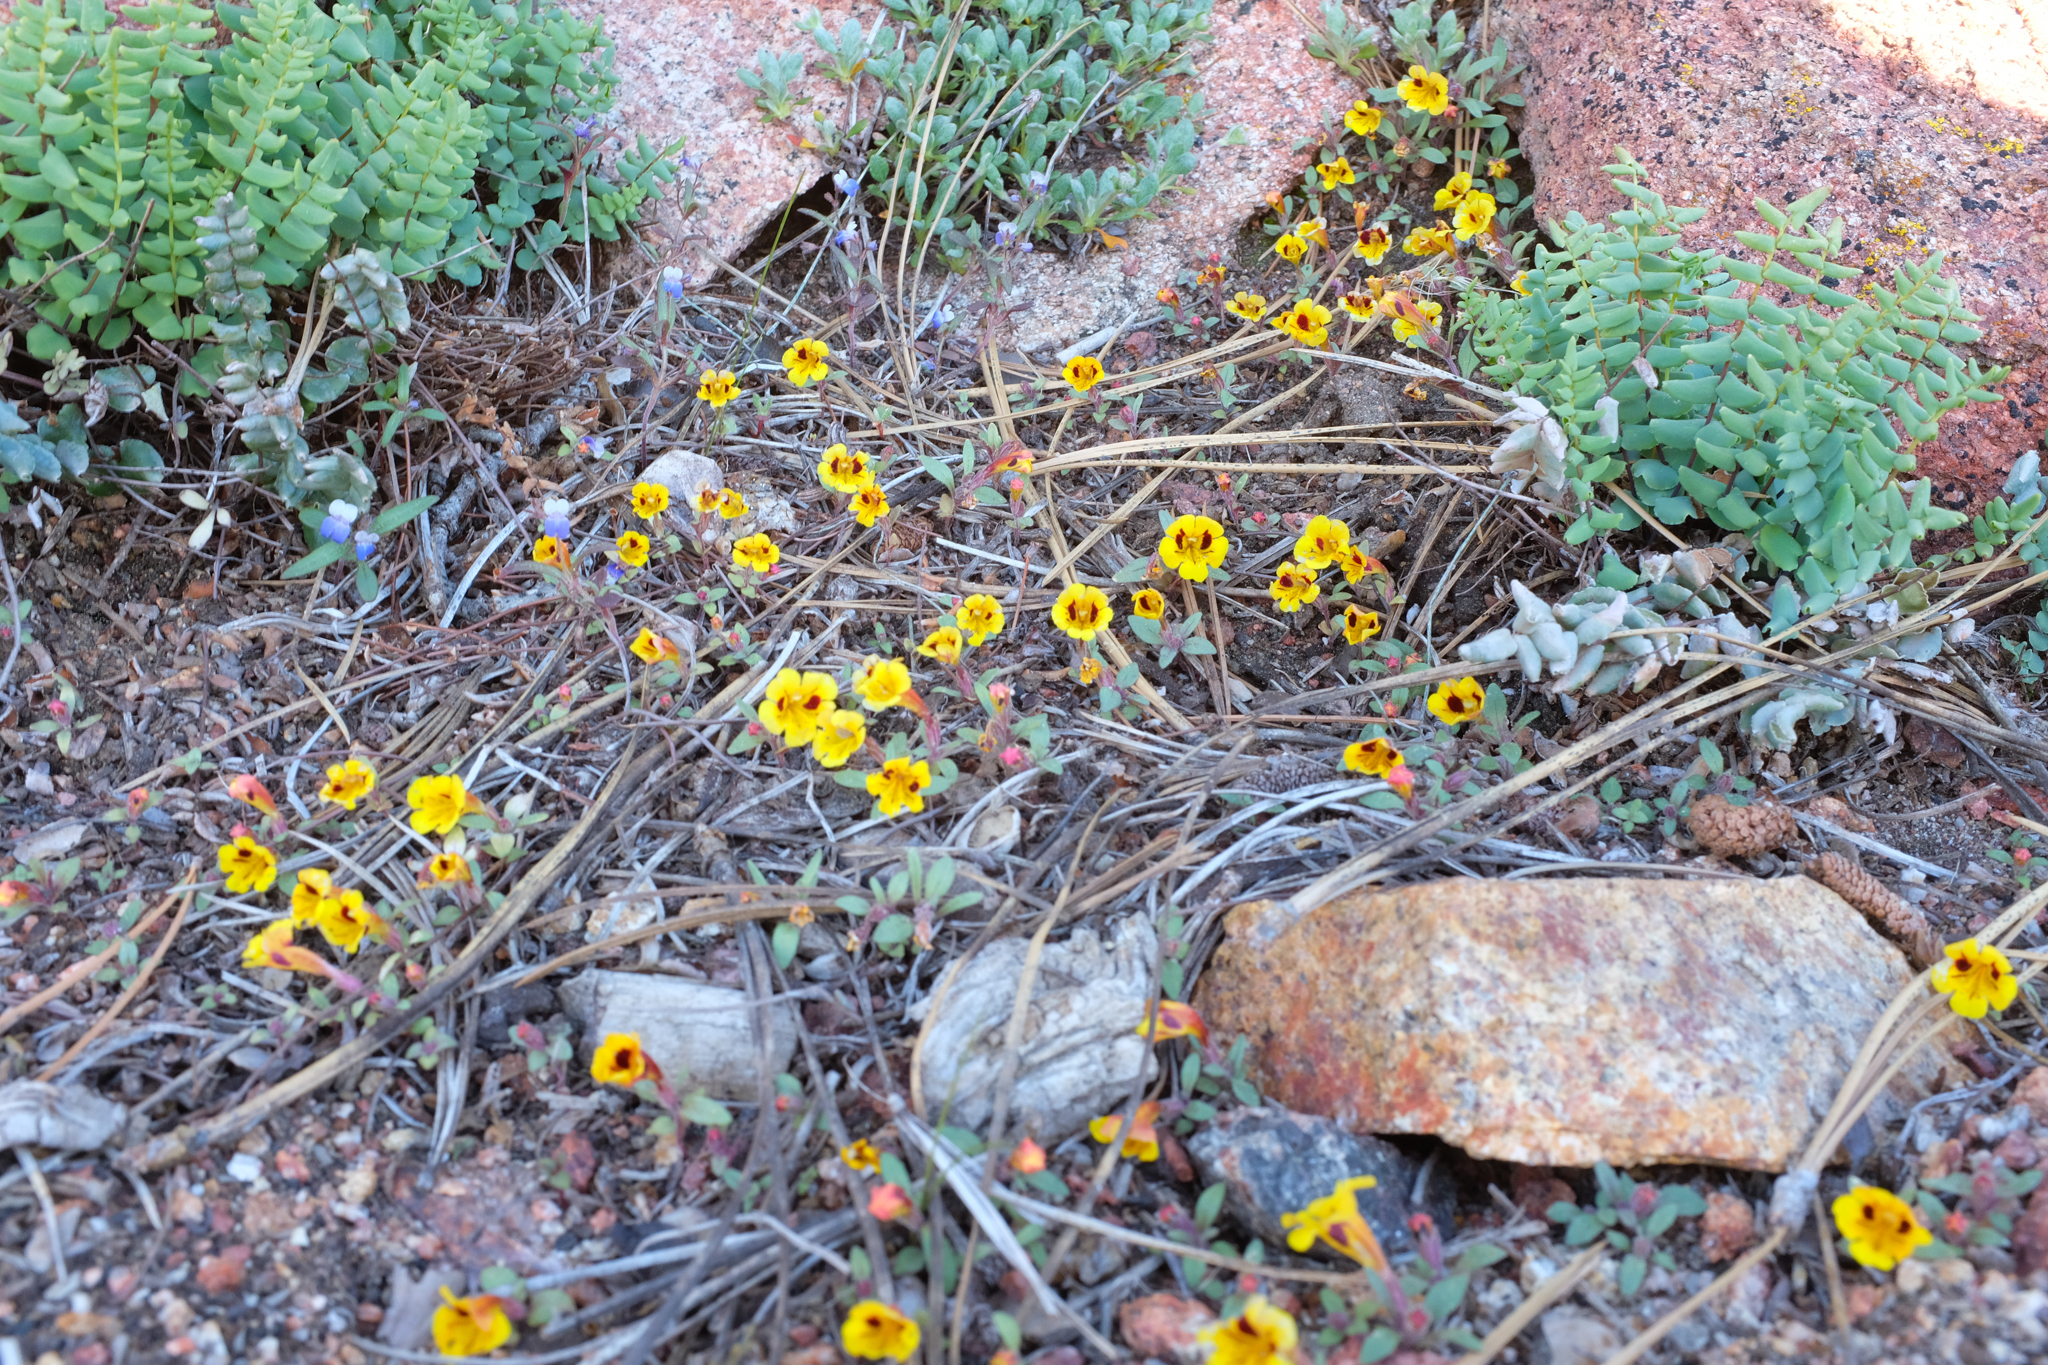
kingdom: Plantae
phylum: Tracheophyta
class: Magnoliopsida
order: Lamiales
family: Phrymaceae
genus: Diplacus
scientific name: Diplacus bicolor
